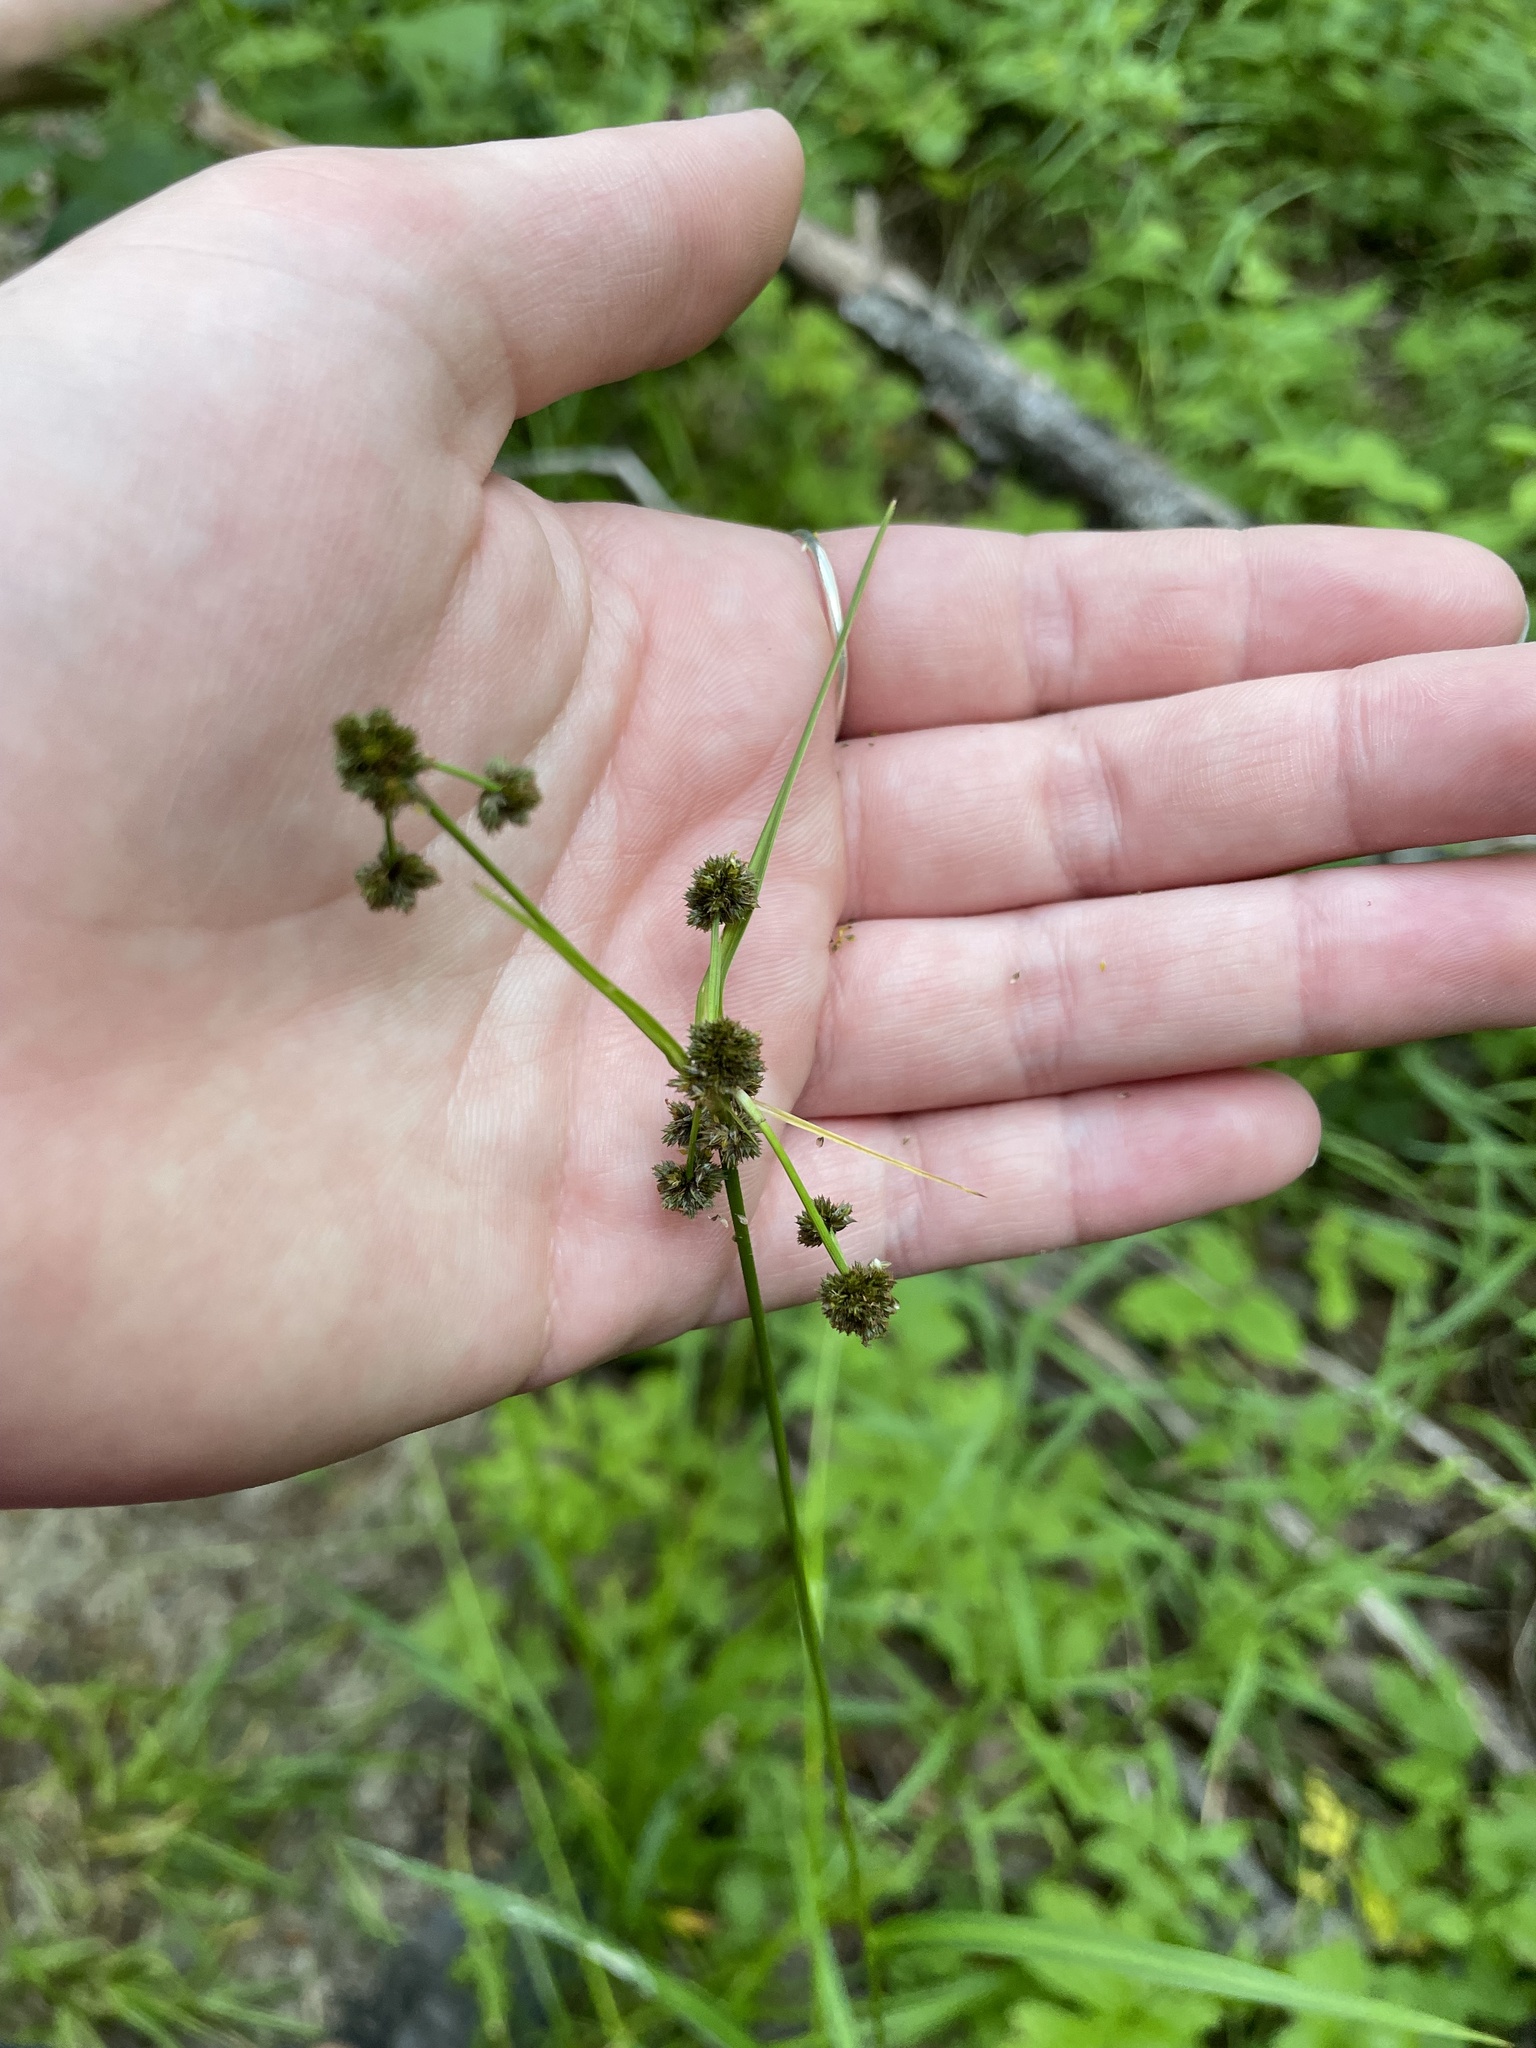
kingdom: Plantae
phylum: Tracheophyta
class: Liliopsida
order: Poales
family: Cyperaceae
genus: Scirpus
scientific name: Scirpus hattorianus
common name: Early dark-green bulrush
